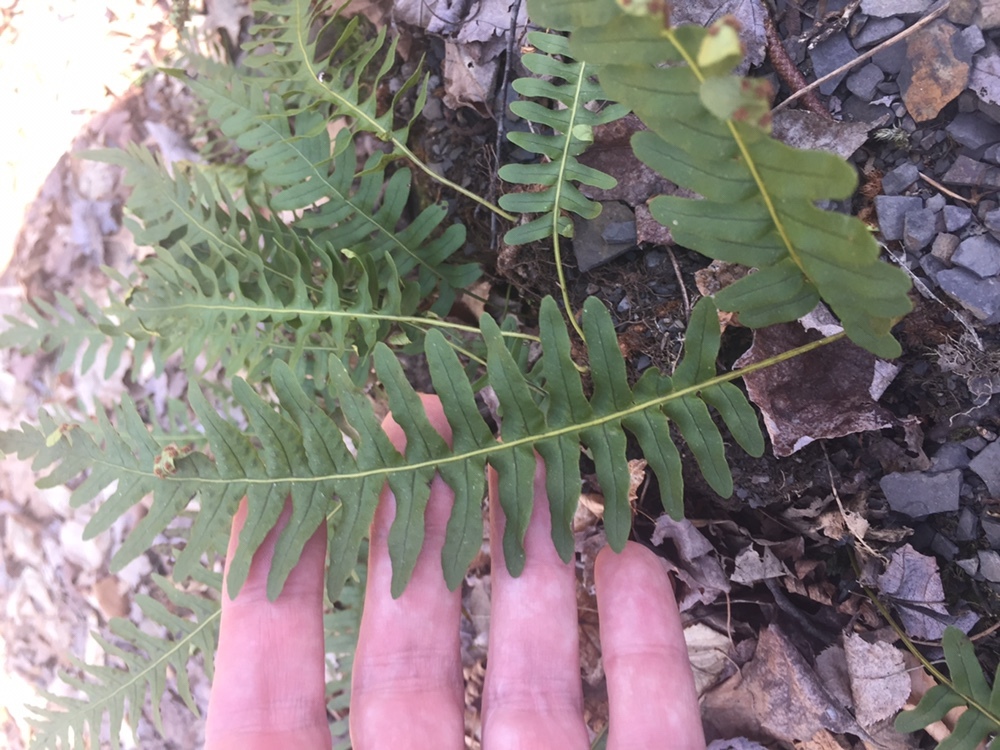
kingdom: Plantae
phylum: Tracheophyta
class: Polypodiopsida
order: Polypodiales
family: Polypodiaceae
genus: Polypodium
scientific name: Polypodium virginianum
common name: American wall fern
